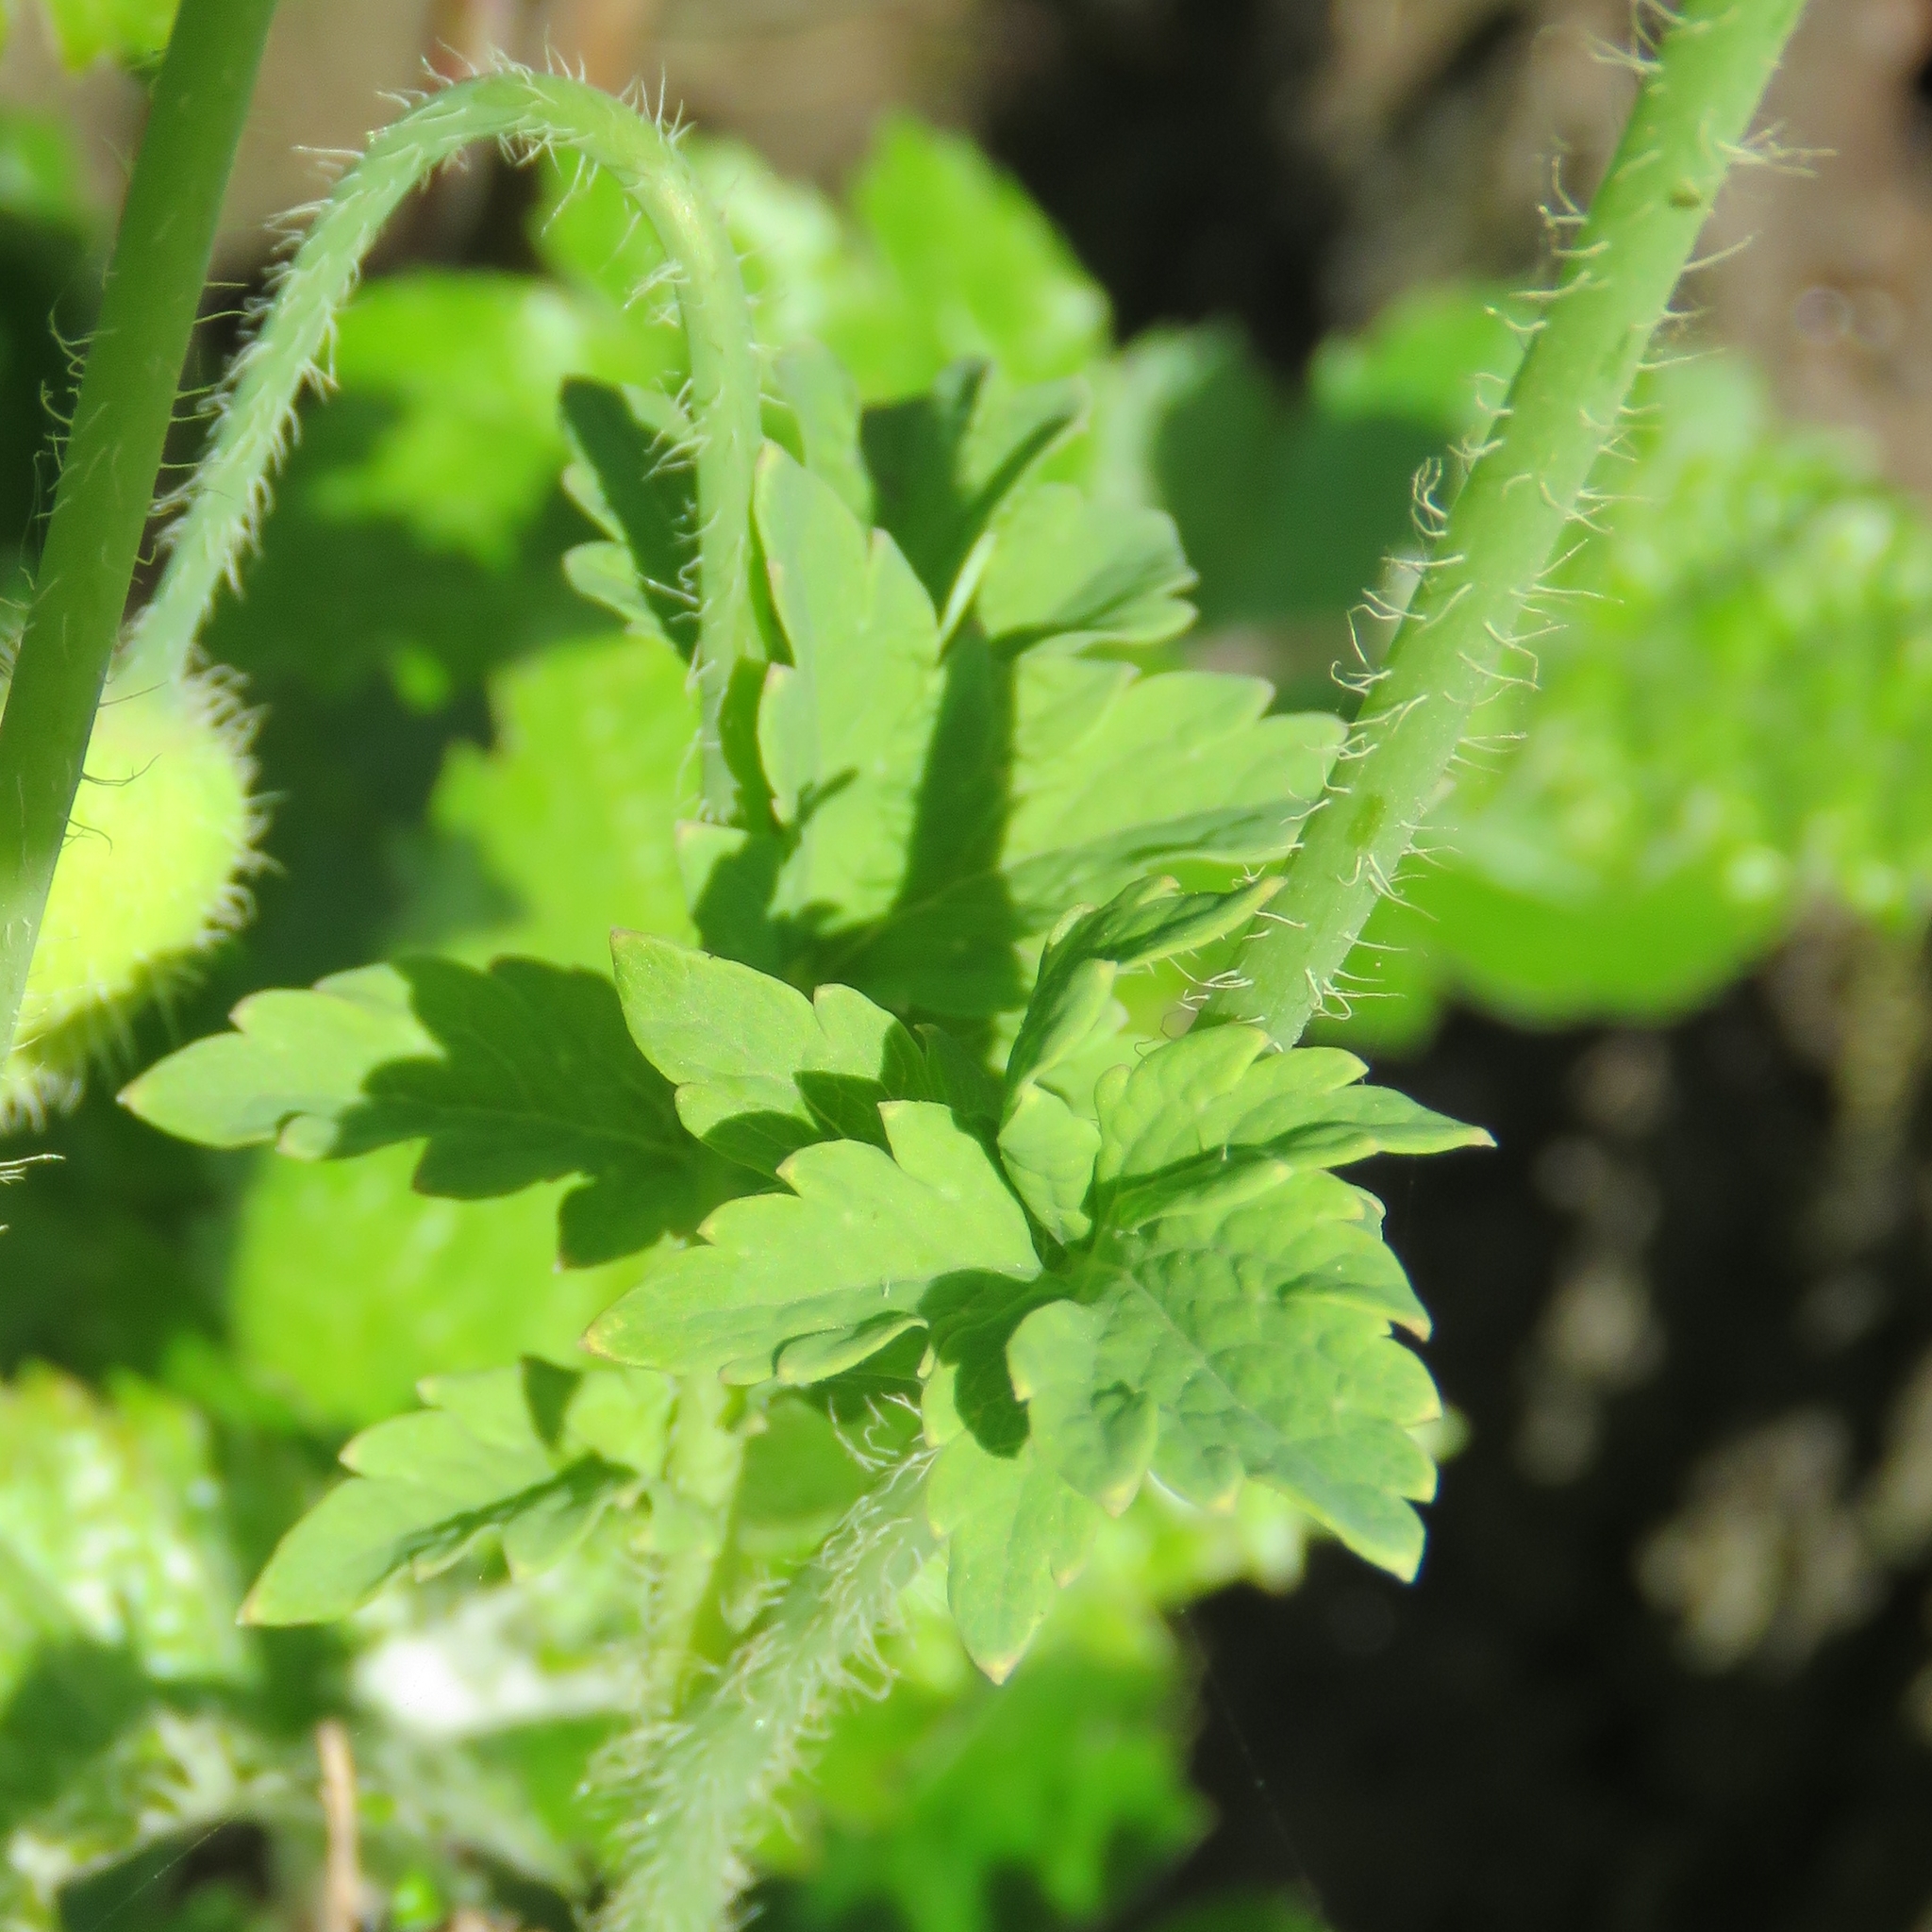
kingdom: Plantae
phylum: Tracheophyta
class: Magnoliopsida
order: Ranunculales
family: Papaveraceae
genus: Papaver
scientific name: Papaver cambricum
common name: Poppy
